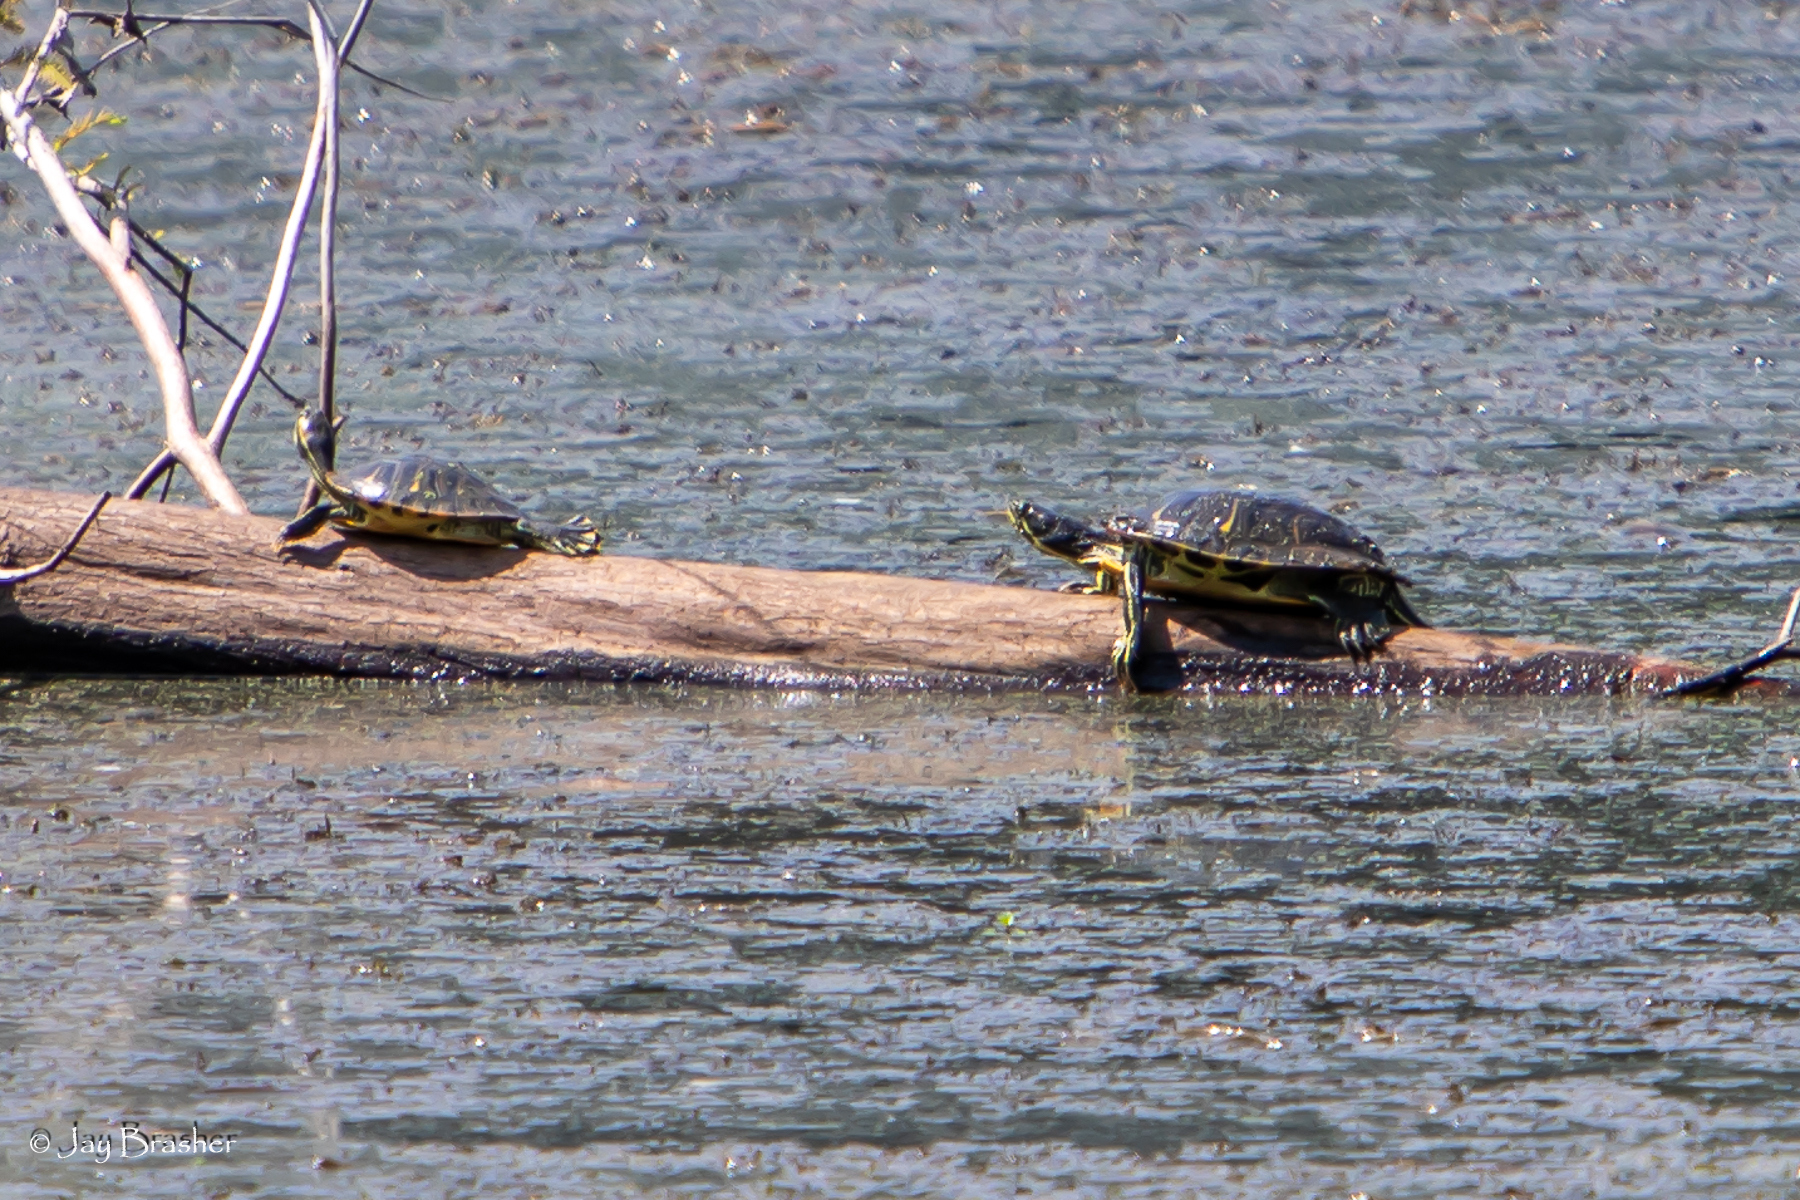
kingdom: Animalia
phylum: Chordata
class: Testudines
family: Emydidae
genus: Trachemys
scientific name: Trachemys scripta
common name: Slider
